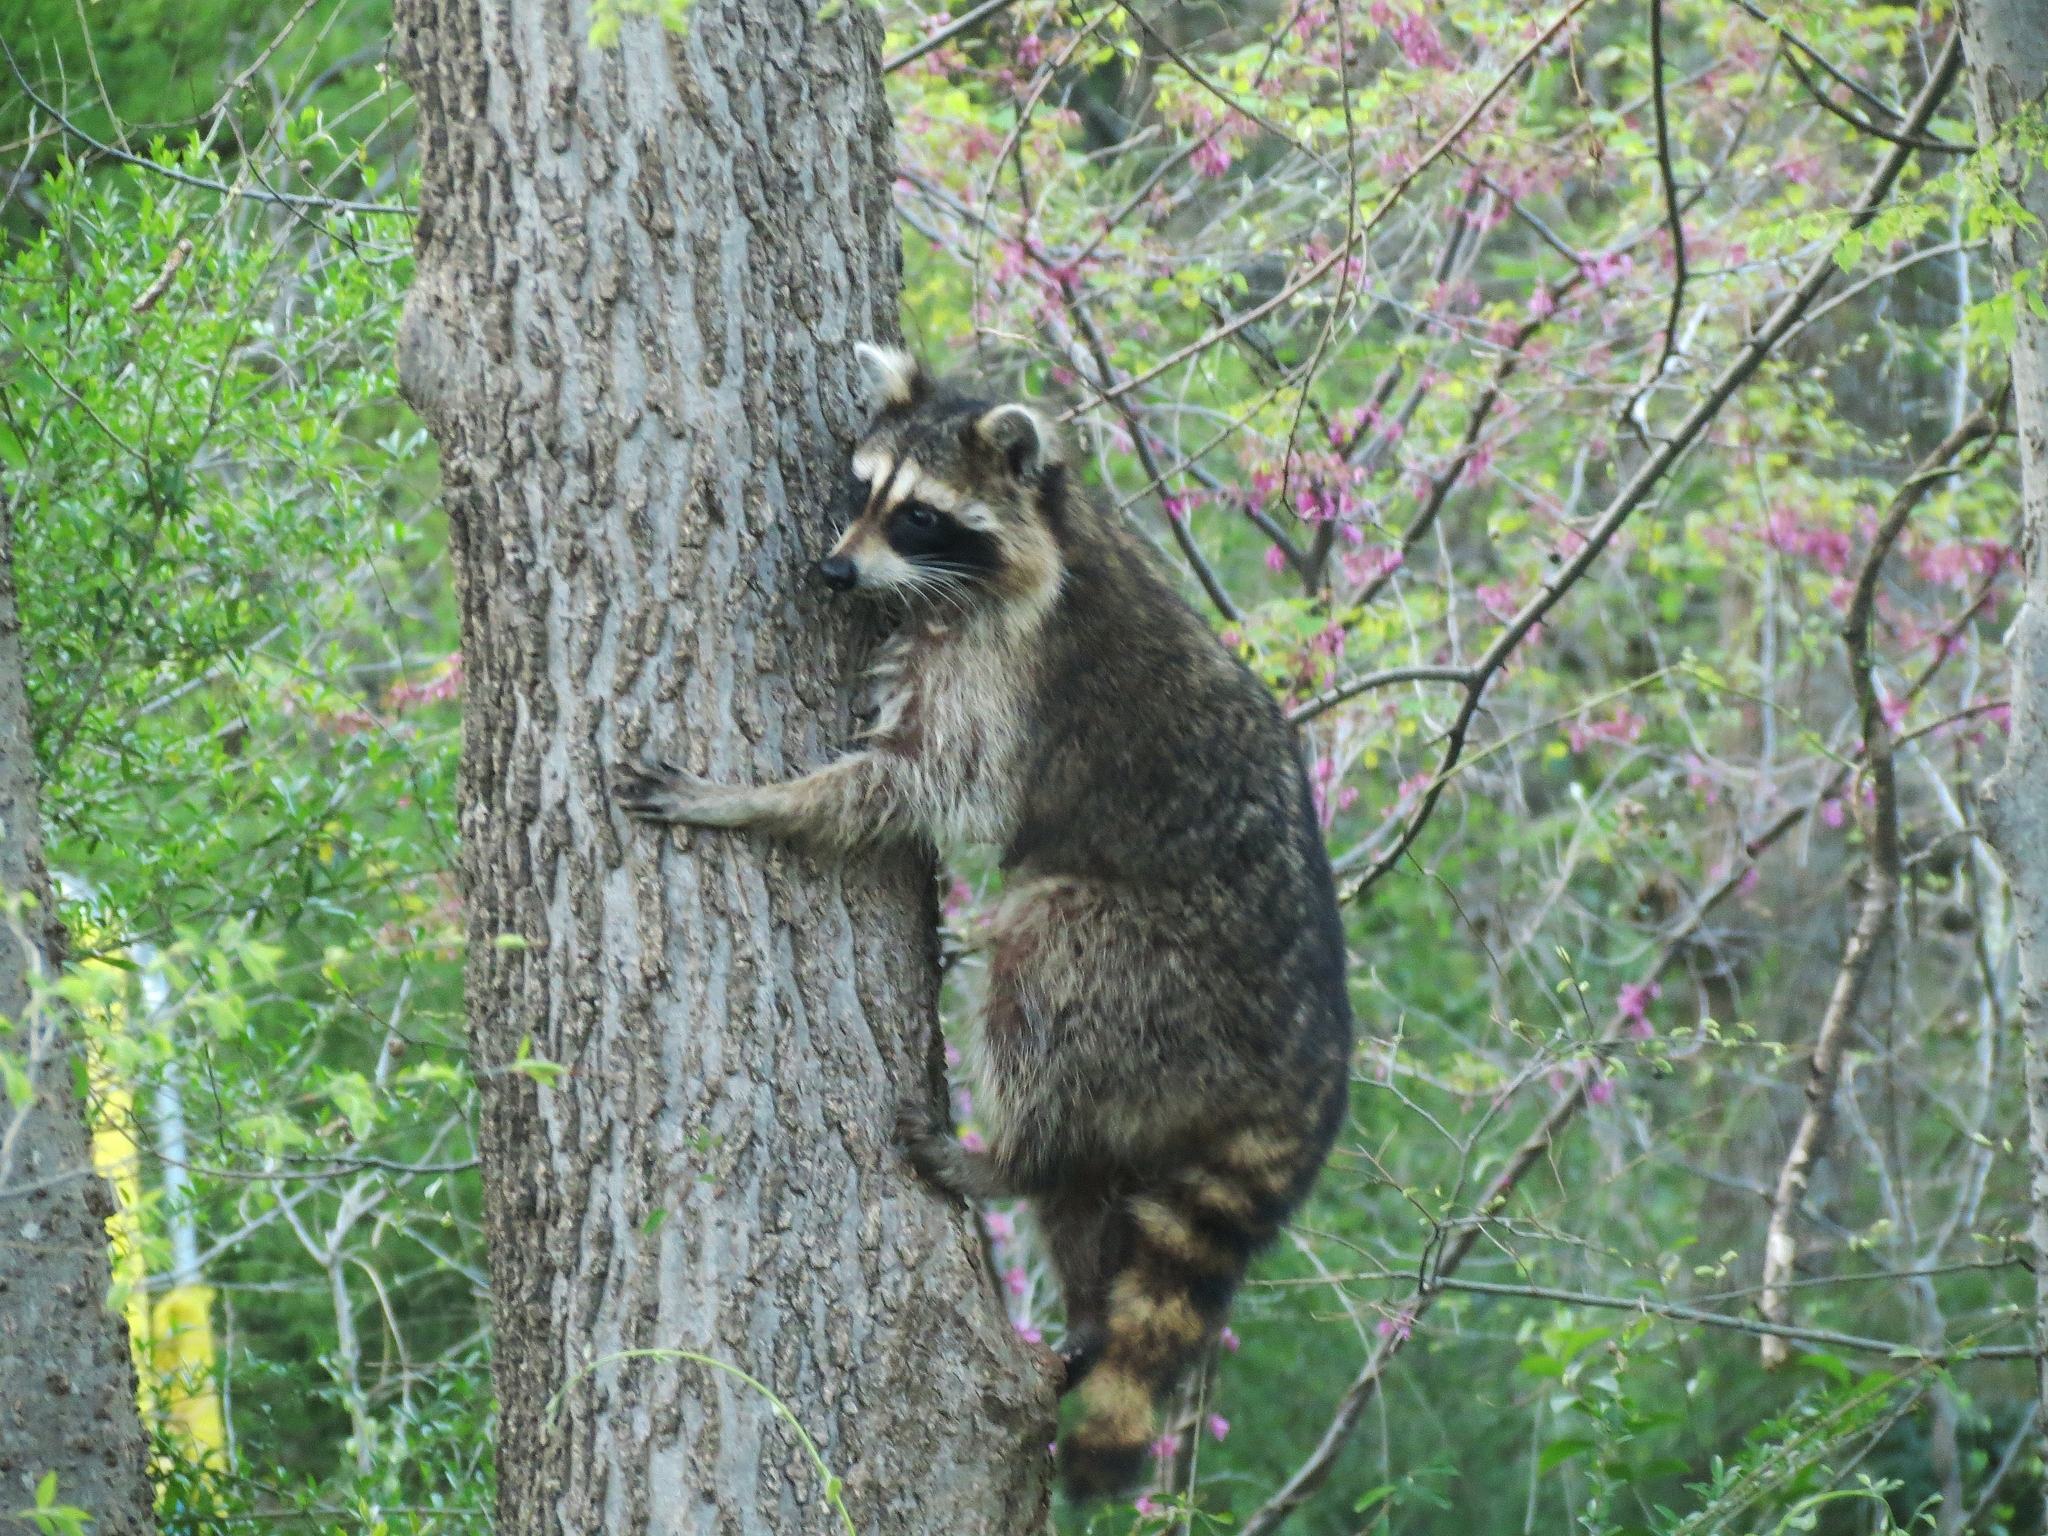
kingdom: Animalia
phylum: Chordata
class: Mammalia
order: Carnivora
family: Procyonidae
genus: Procyon
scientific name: Procyon lotor
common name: Raccoon
